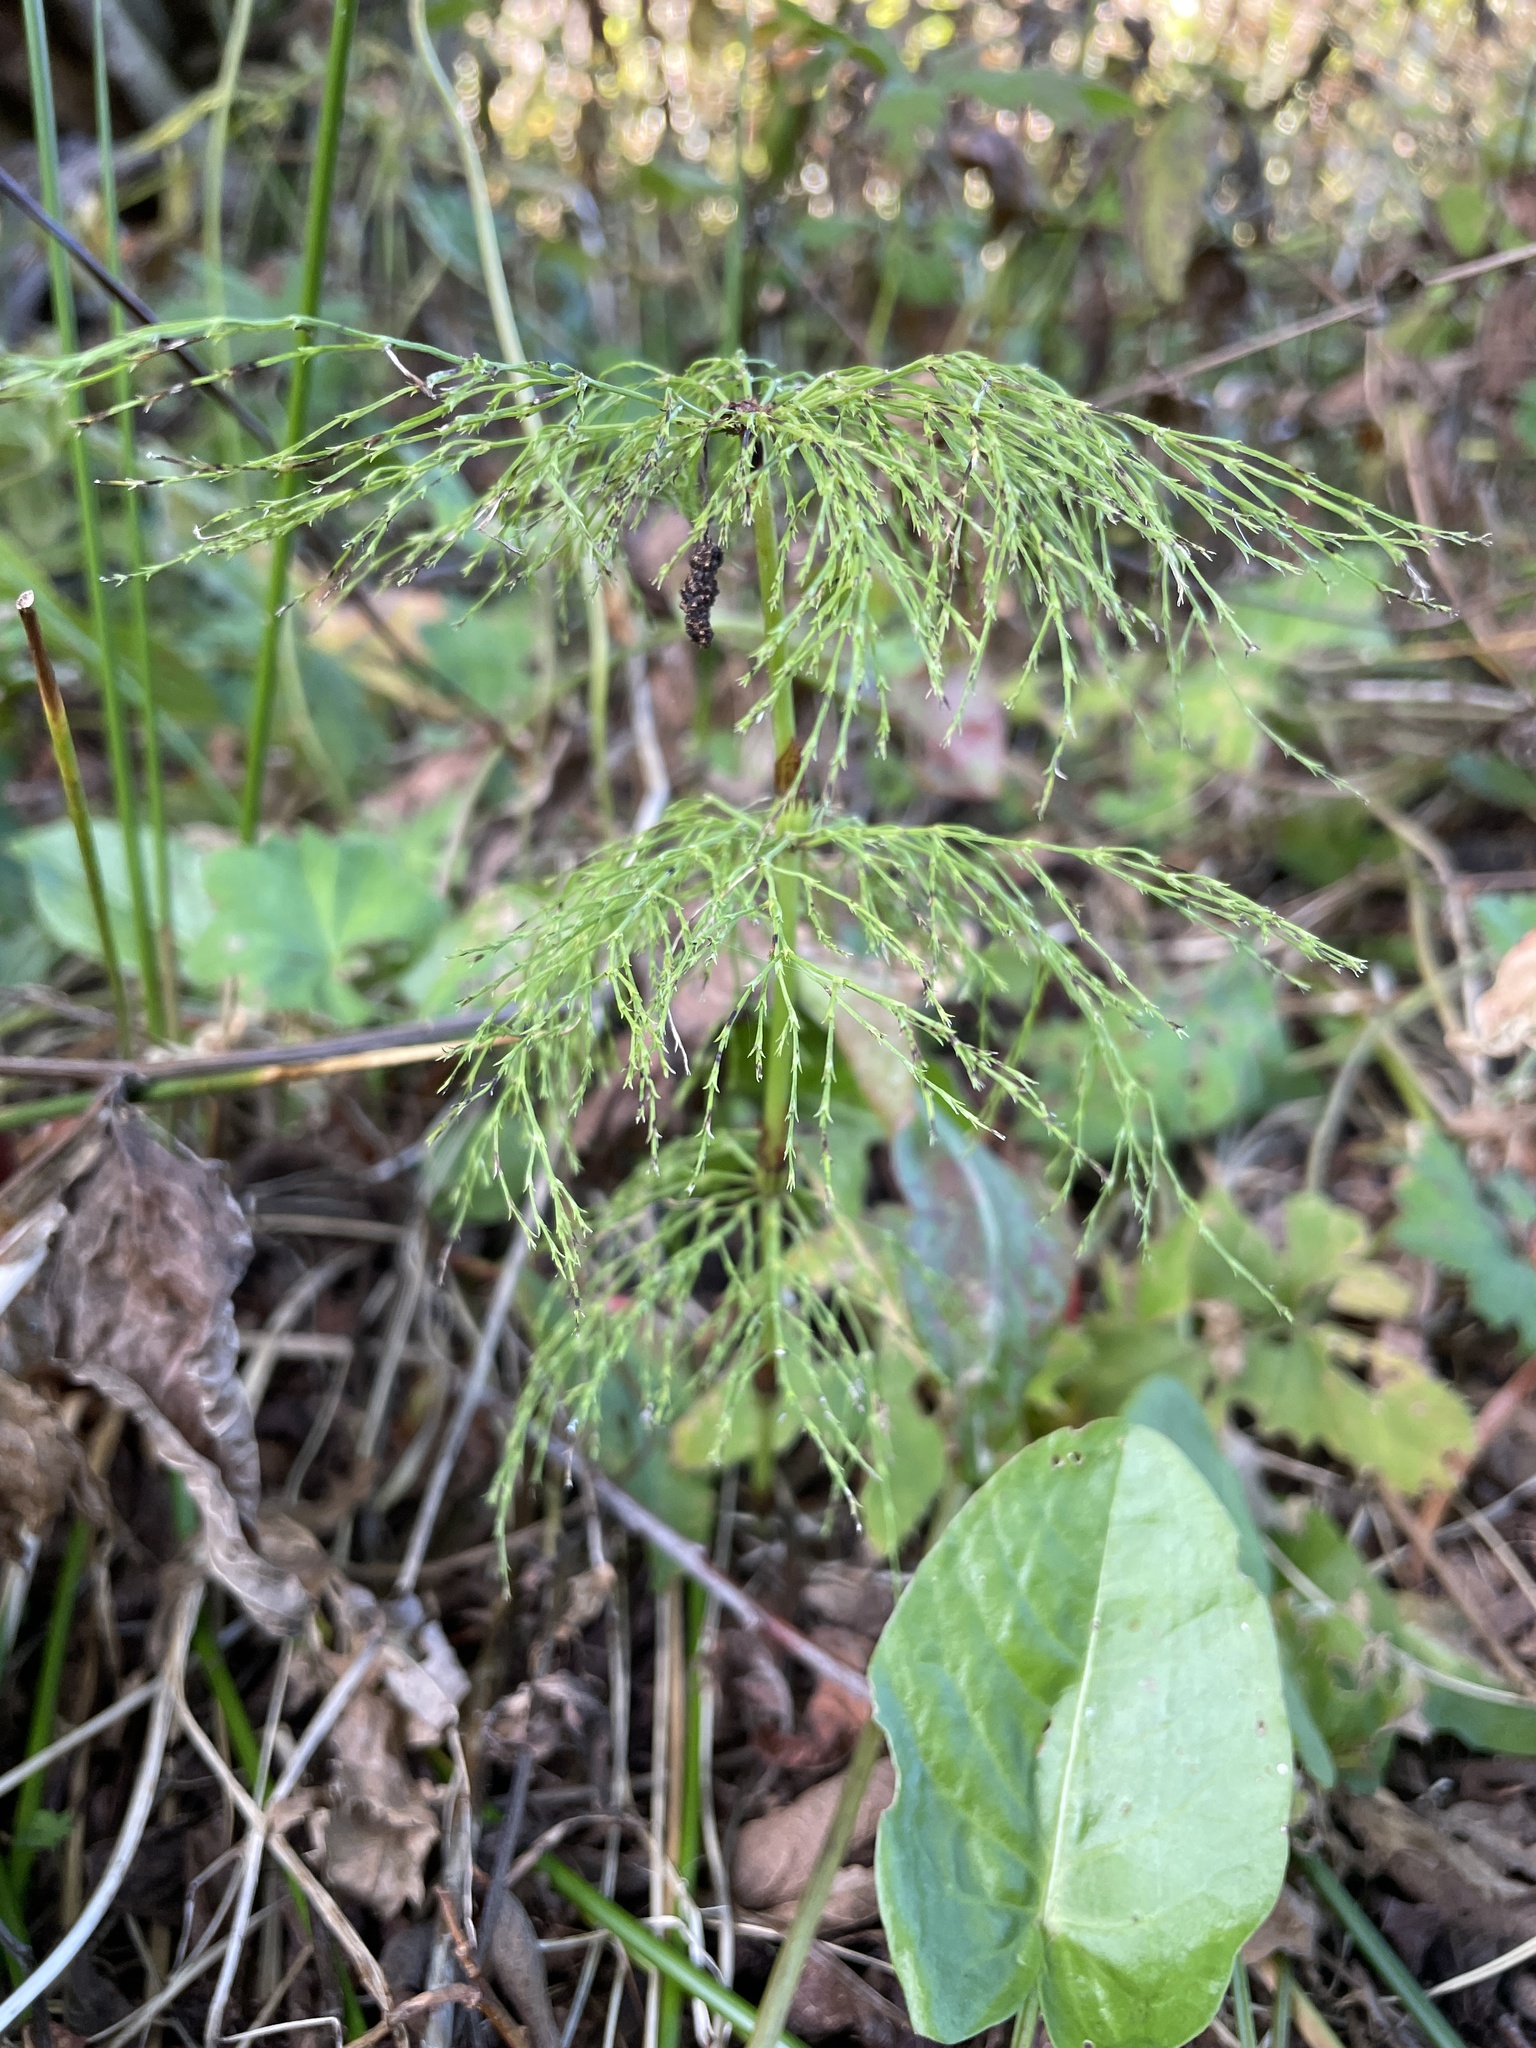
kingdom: Plantae
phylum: Tracheophyta
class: Polypodiopsida
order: Equisetales
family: Equisetaceae
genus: Equisetum
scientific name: Equisetum sylvaticum
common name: Wood horsetail
